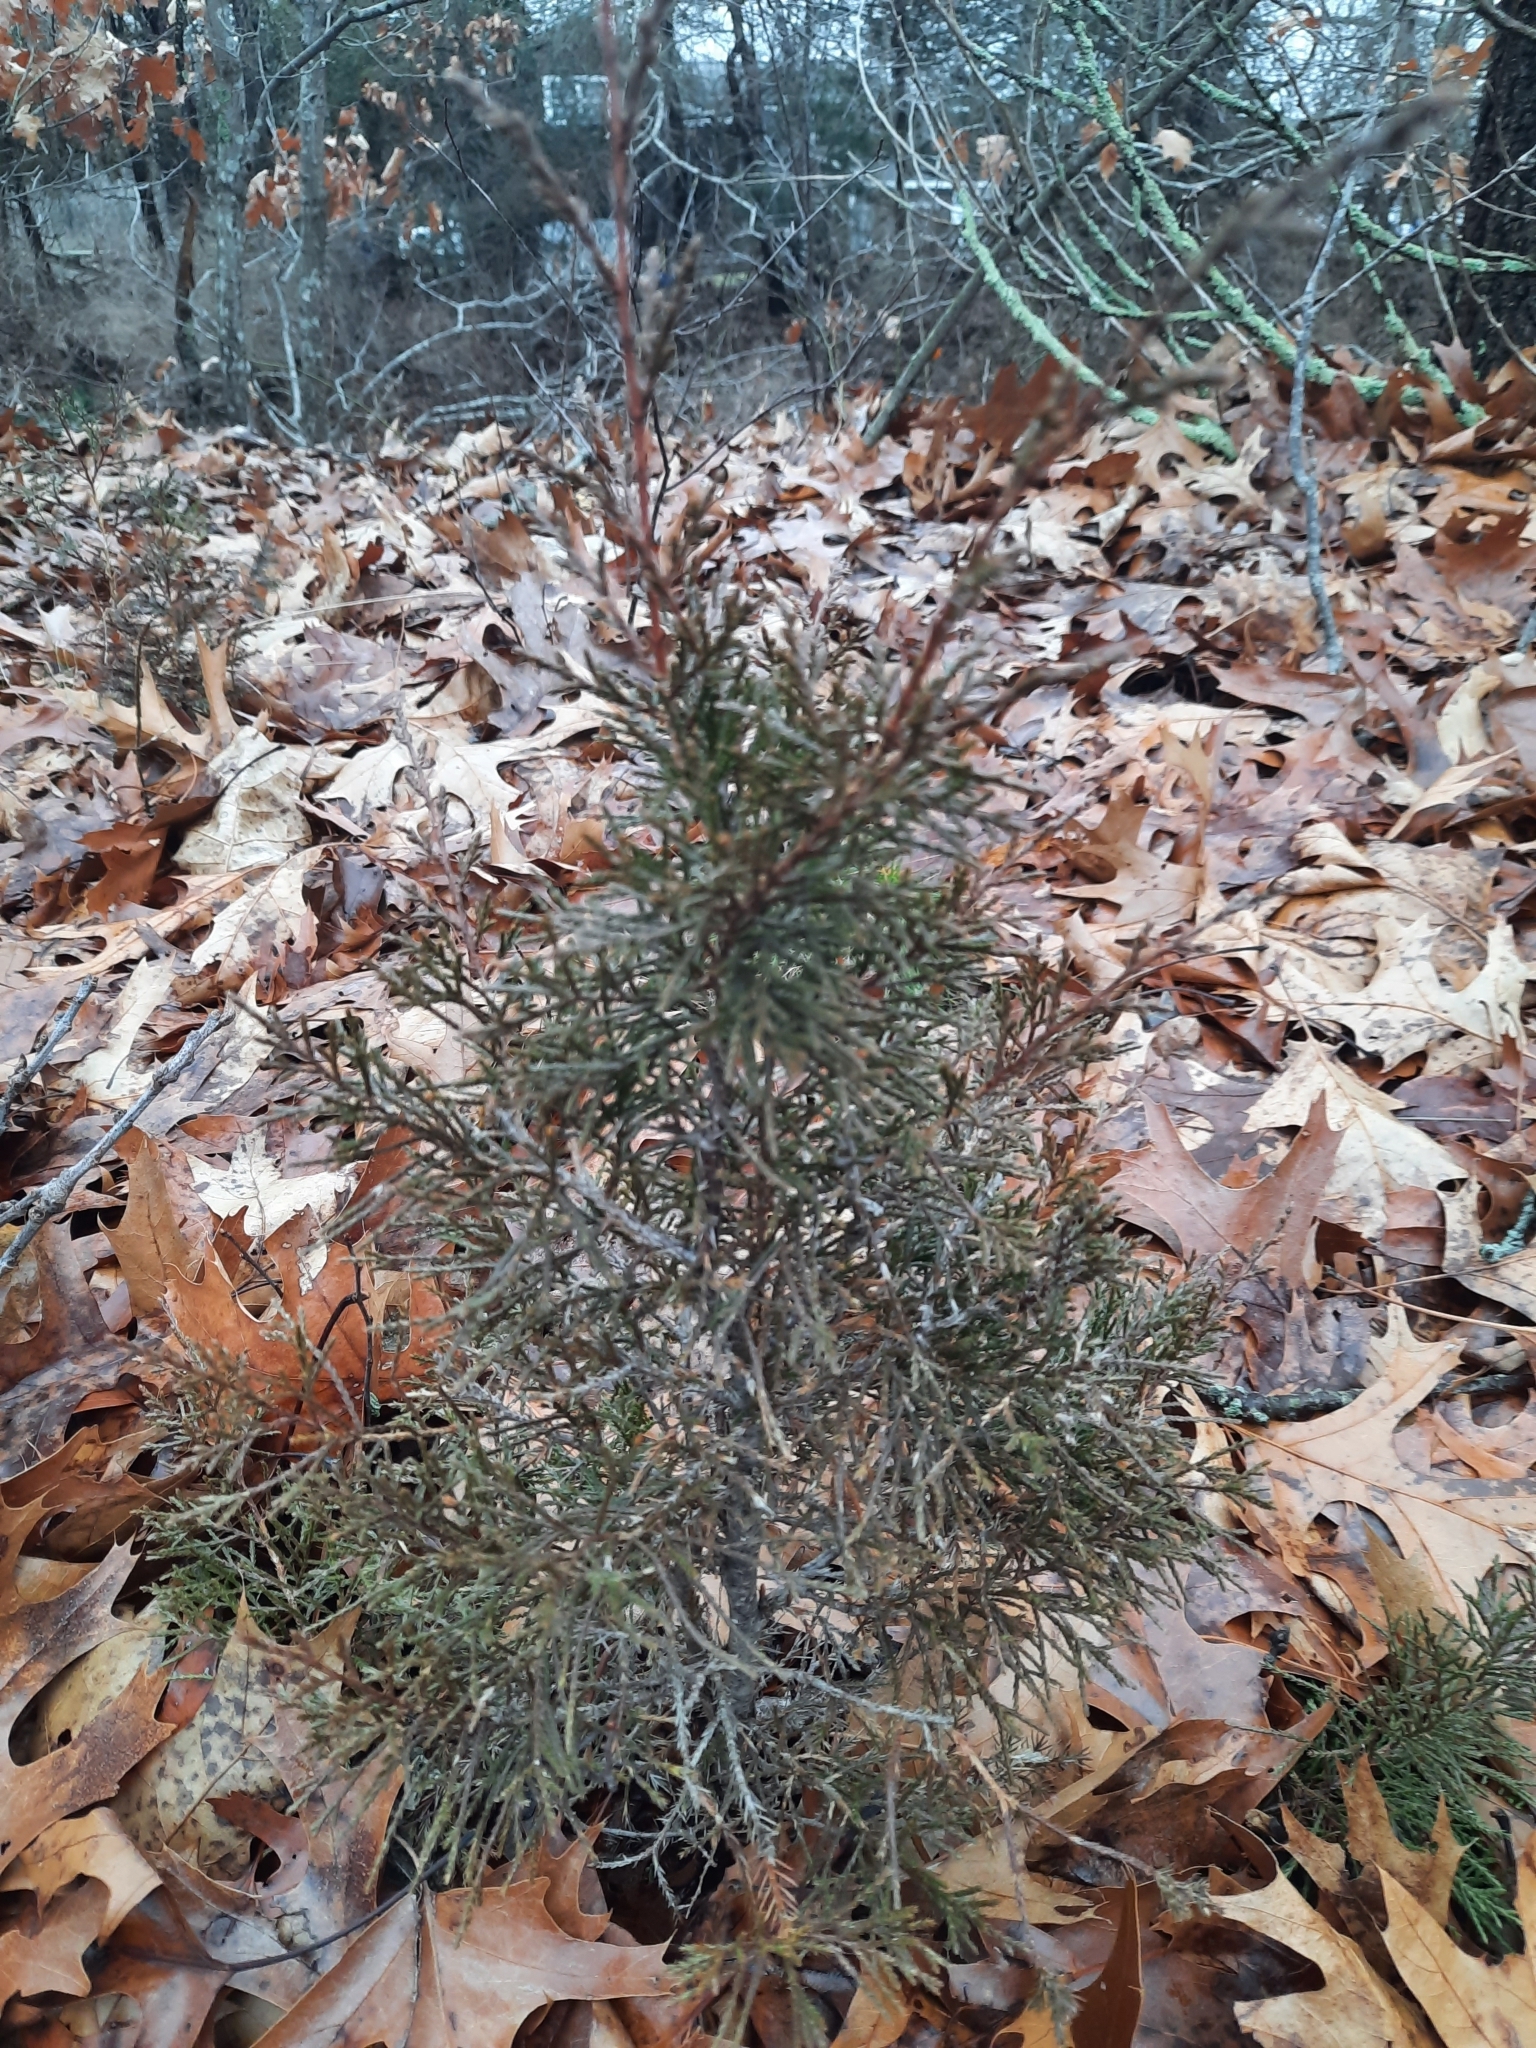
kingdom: Plantae
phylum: Tracheophyta
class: Pinopsida
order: Pinales
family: Cupressaceae
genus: Juniperus
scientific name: Juniperus virginiana
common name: Red juniper
